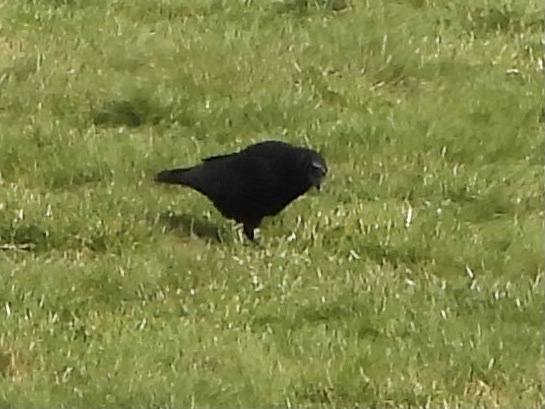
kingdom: Animalia
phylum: Chordata
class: Aves
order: Passeriformes
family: Corvidae
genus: Corvus
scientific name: Corvus brachyrhynchos
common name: American crow
